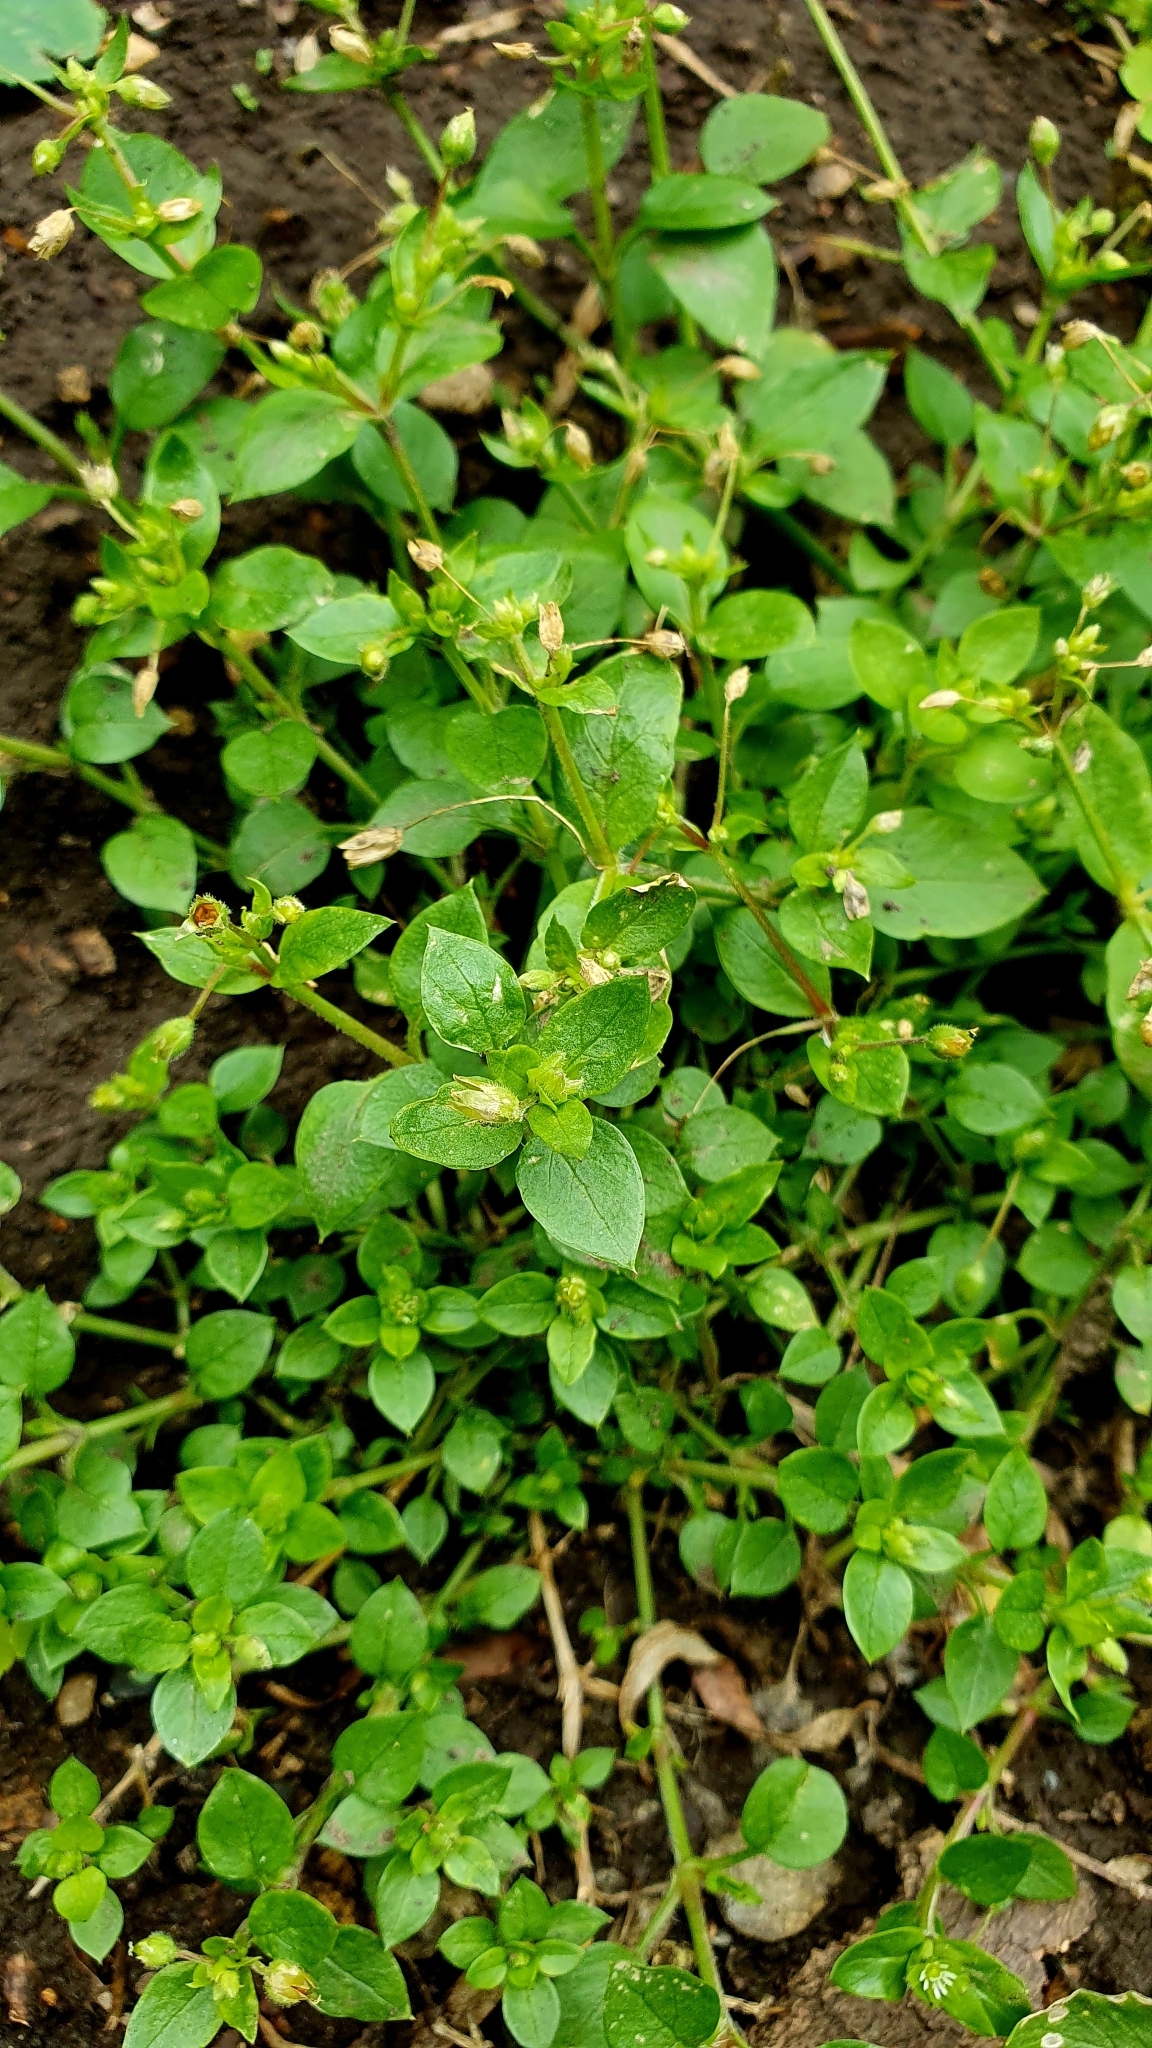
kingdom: Plantae
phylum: Tracheophyta
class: Magnoliopsida
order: Caryophyllales
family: Caryophyllaceae
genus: Stellaria
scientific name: Stellaria media
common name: Common chickweed
